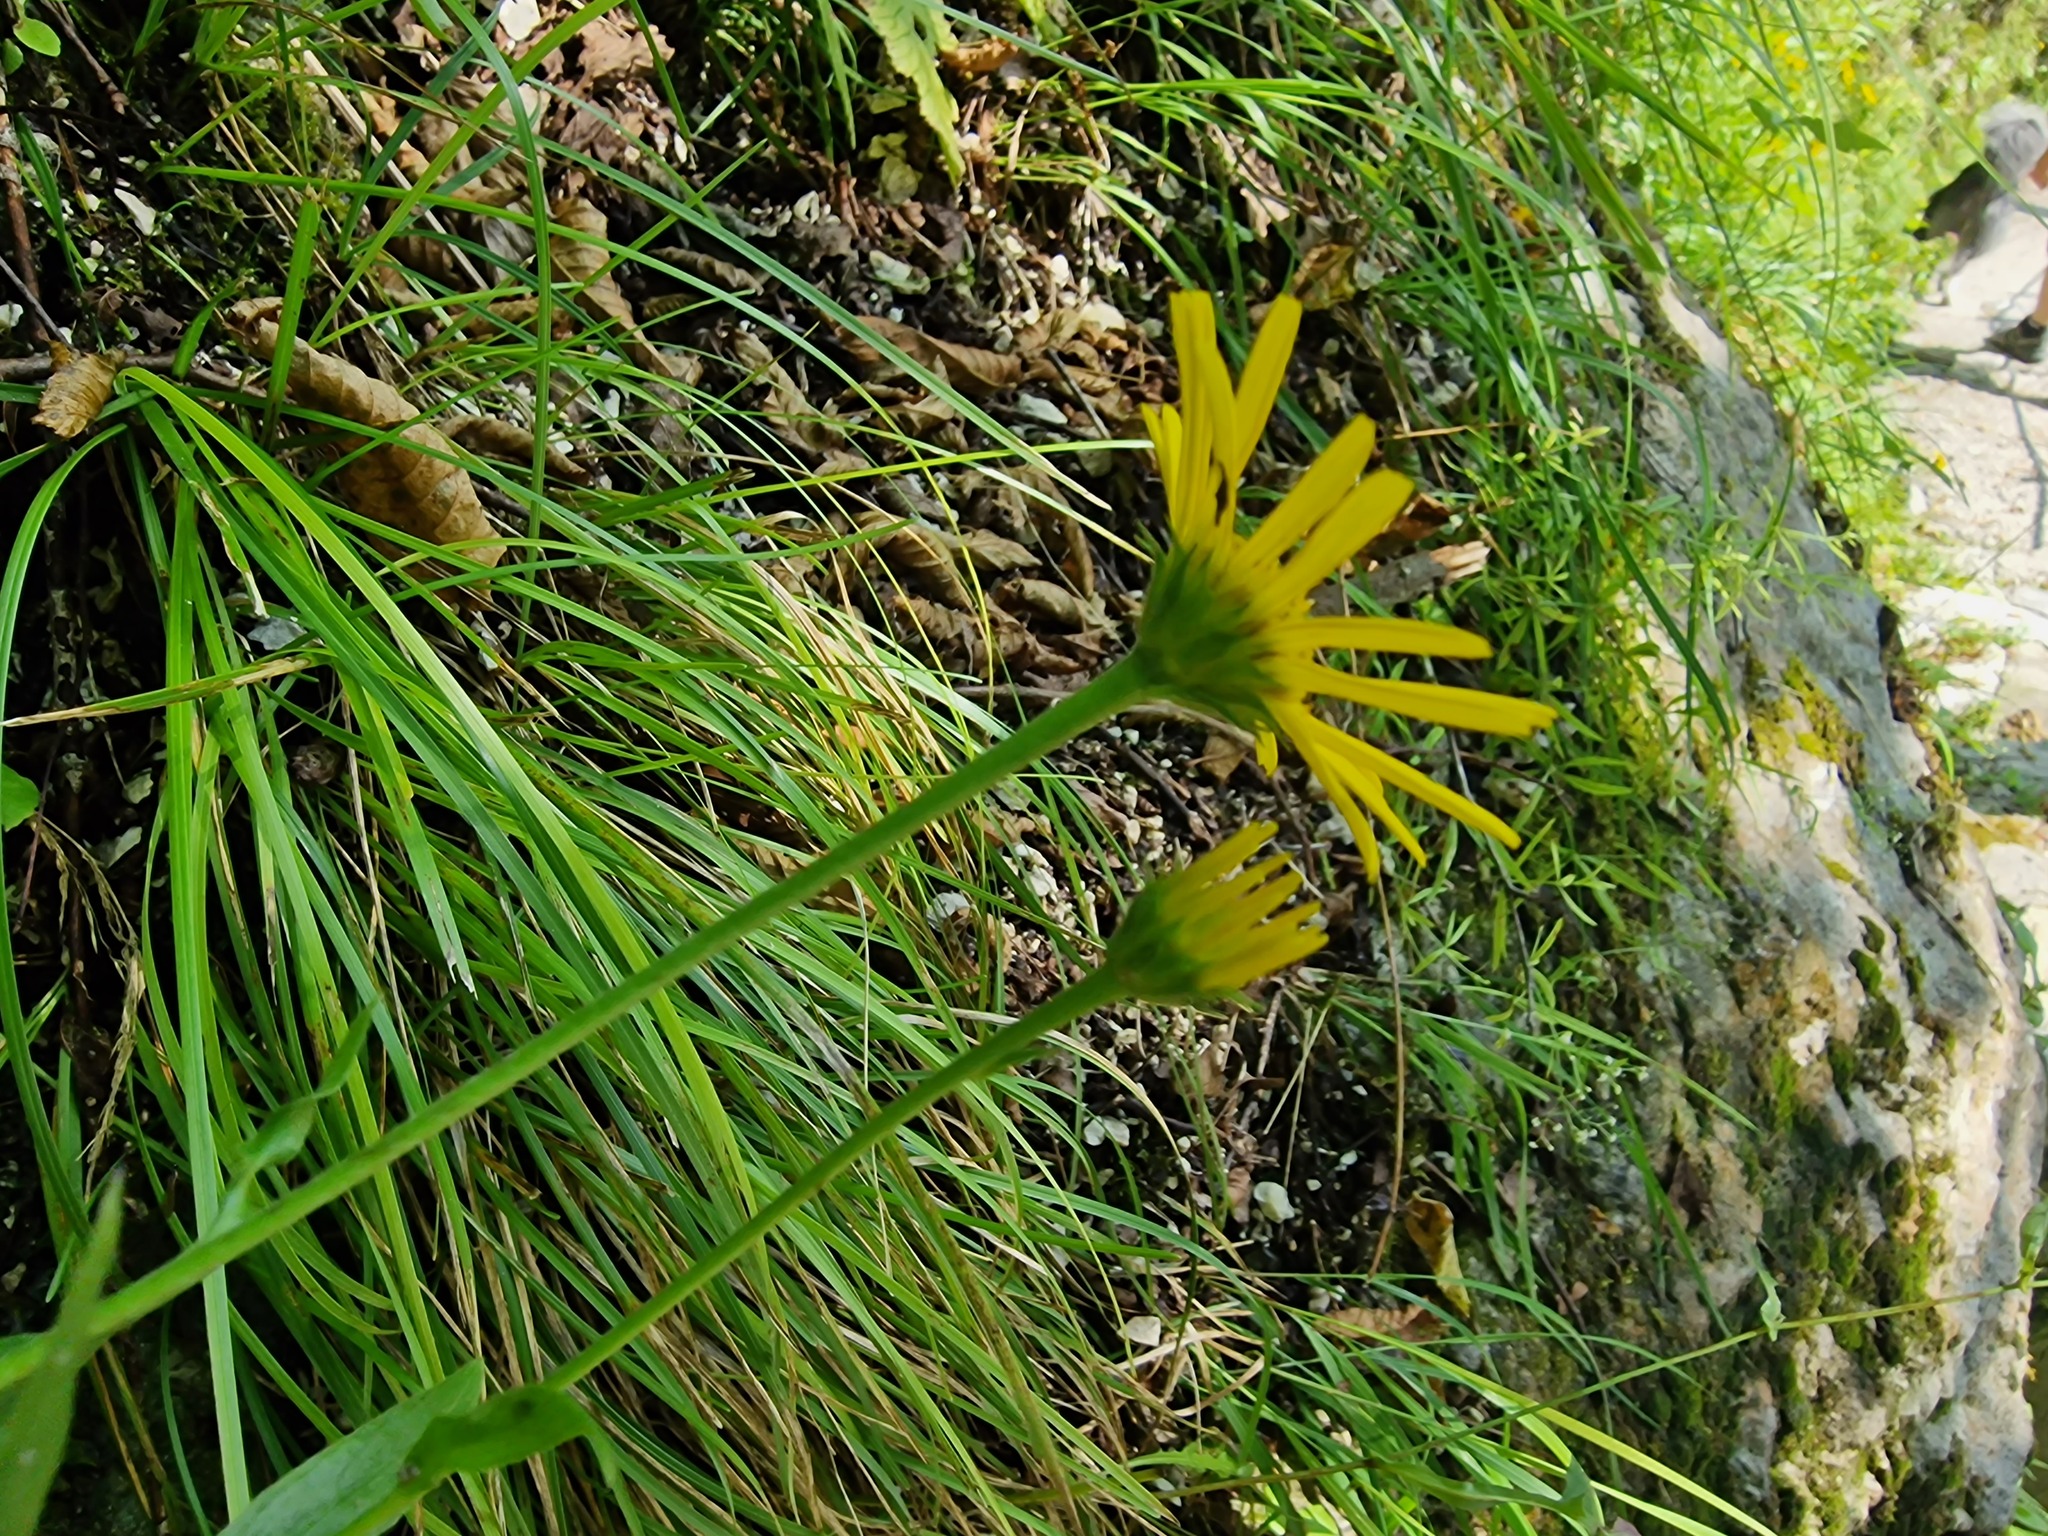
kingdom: Plantae
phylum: Tracheophyta
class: Magnoliopsida
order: Asterales
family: Asteraceae
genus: Buphthalmum
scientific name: Buphthalmum salicifolium
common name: Willow-leaved yellow-oxeye
